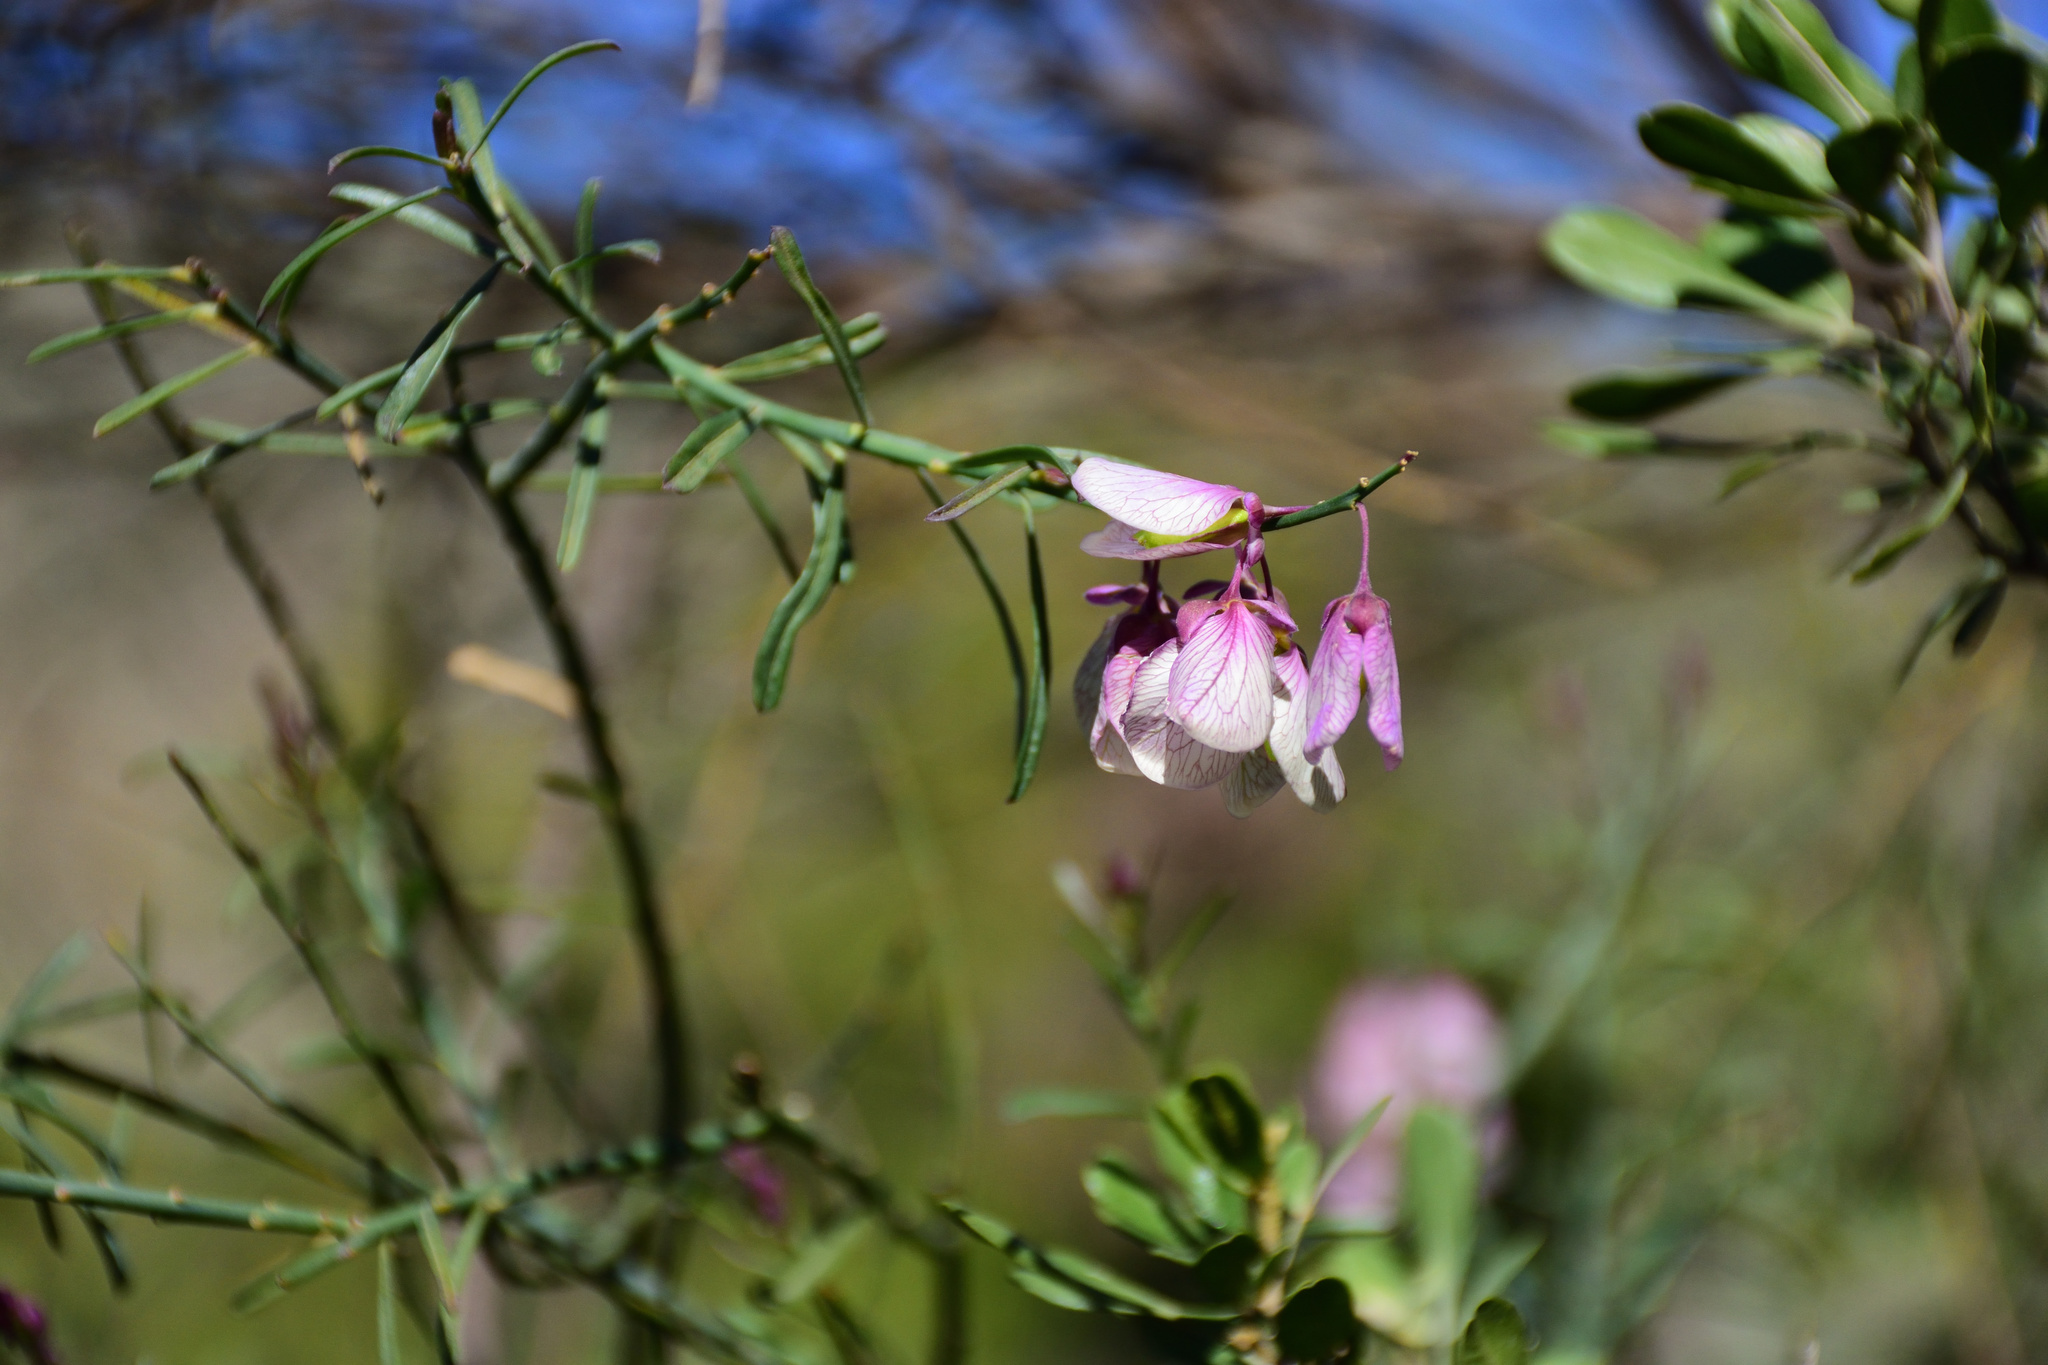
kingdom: Plantae
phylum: Tracheophyta
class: Magnoliopsida
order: Fabales
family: Polygalaceae
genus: Polygala
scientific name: Polygala virgata
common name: Milkwort
